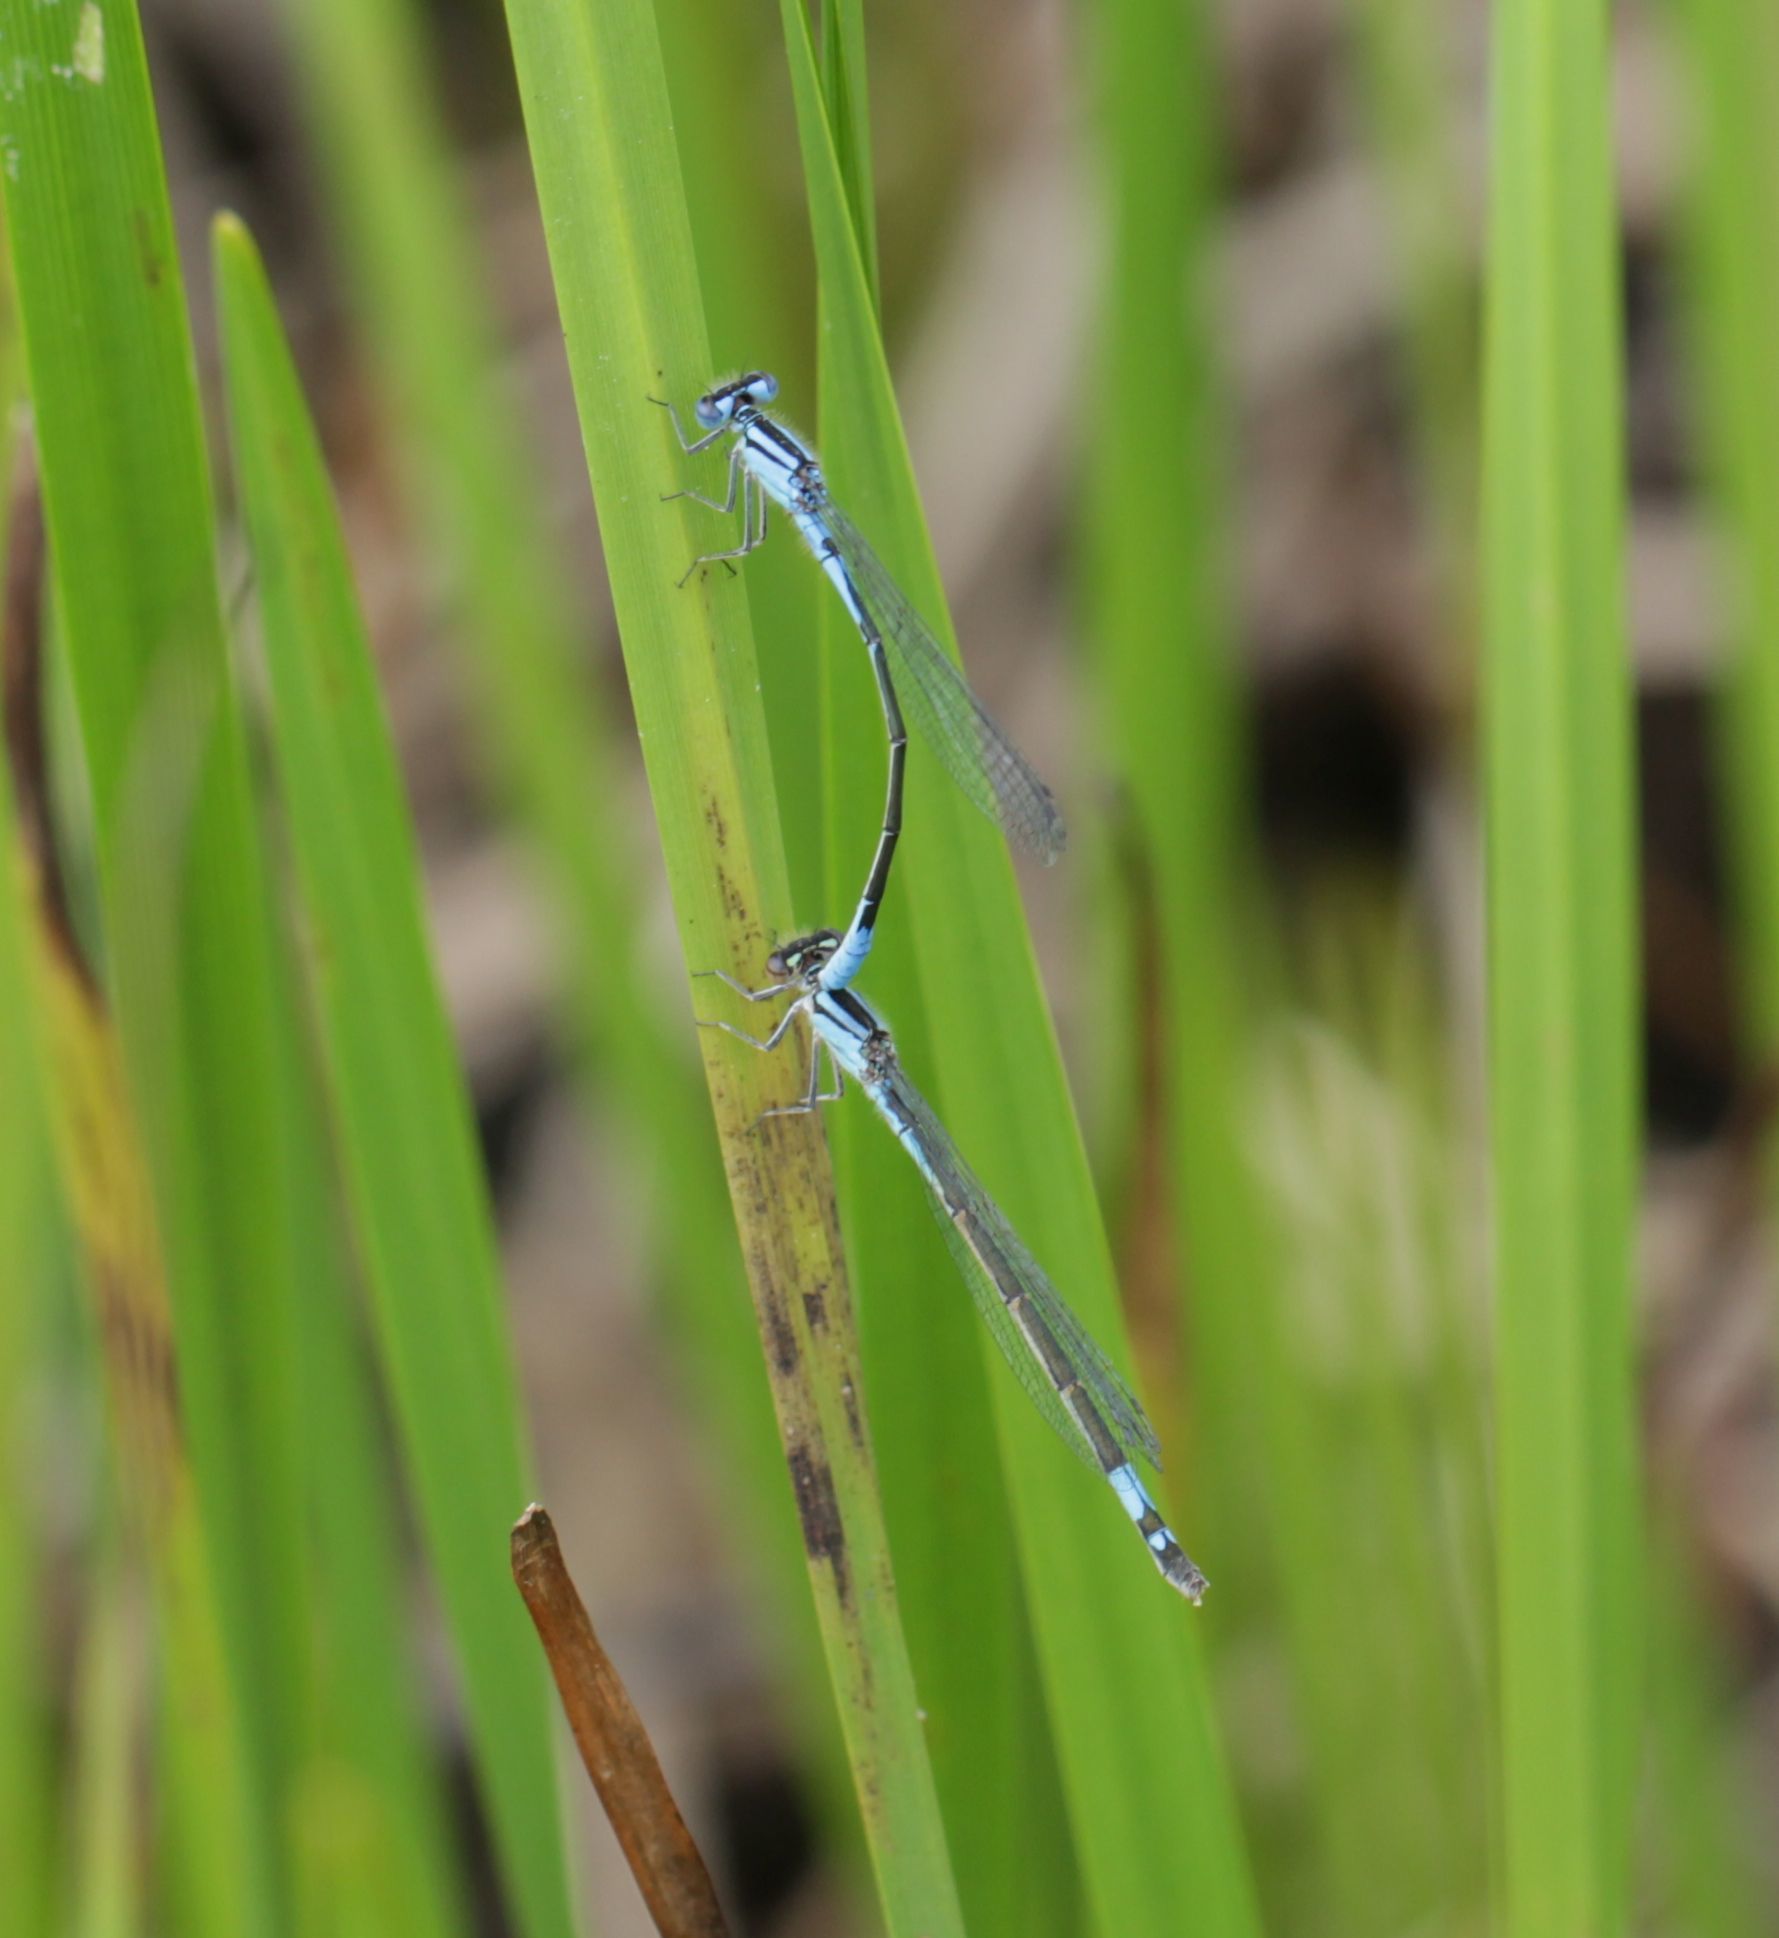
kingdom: Animalia
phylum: Arthropoda
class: Insecta
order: Odonata
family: Coenagrionidae
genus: Enallagma
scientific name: Enallagma aspersum
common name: Azure bluet
